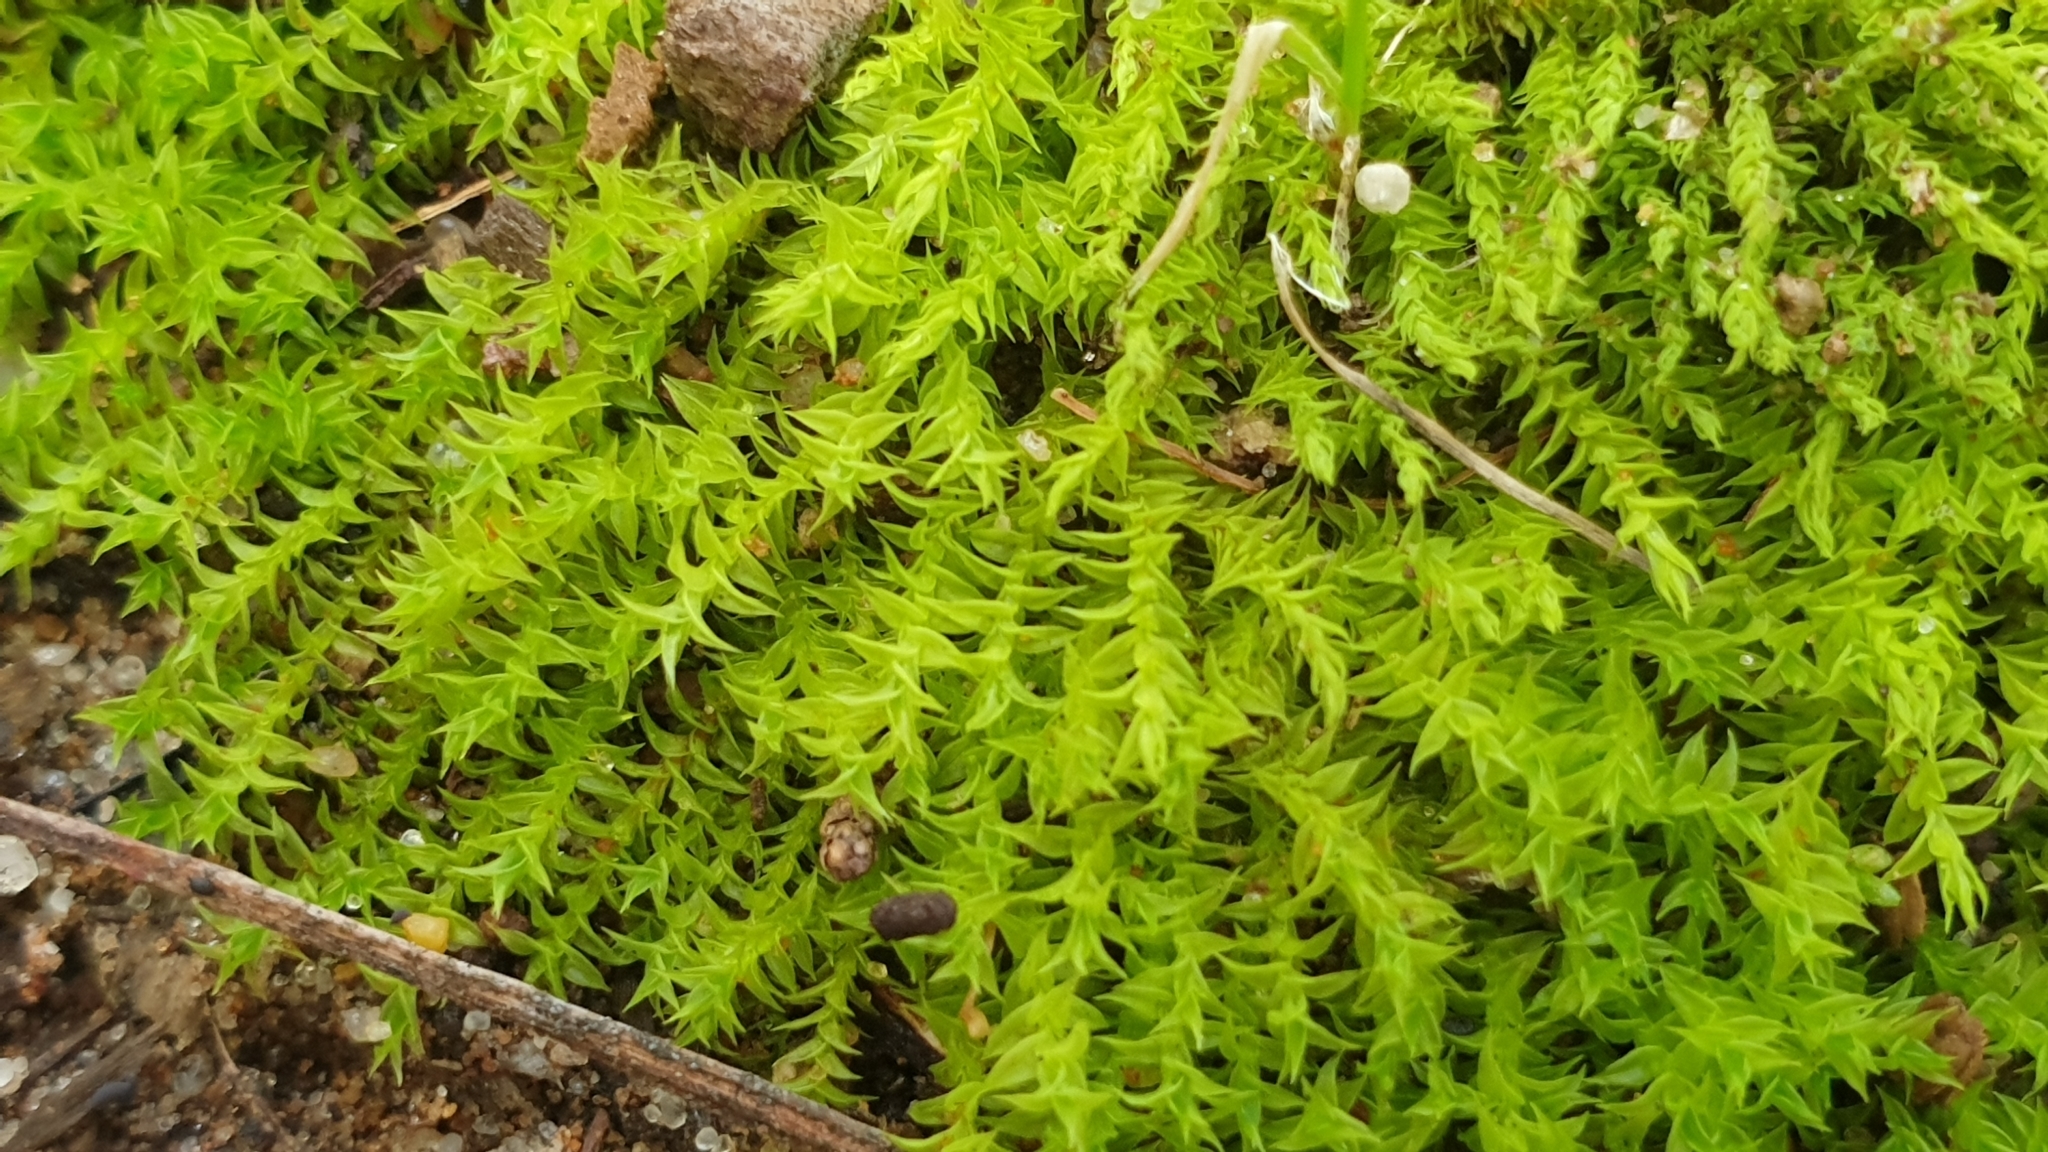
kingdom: Plantae
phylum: Bryophyta
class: Bryopsida
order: Pottiales
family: Pottiaceae
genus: Triquetrella
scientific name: Triquetrella papillata
